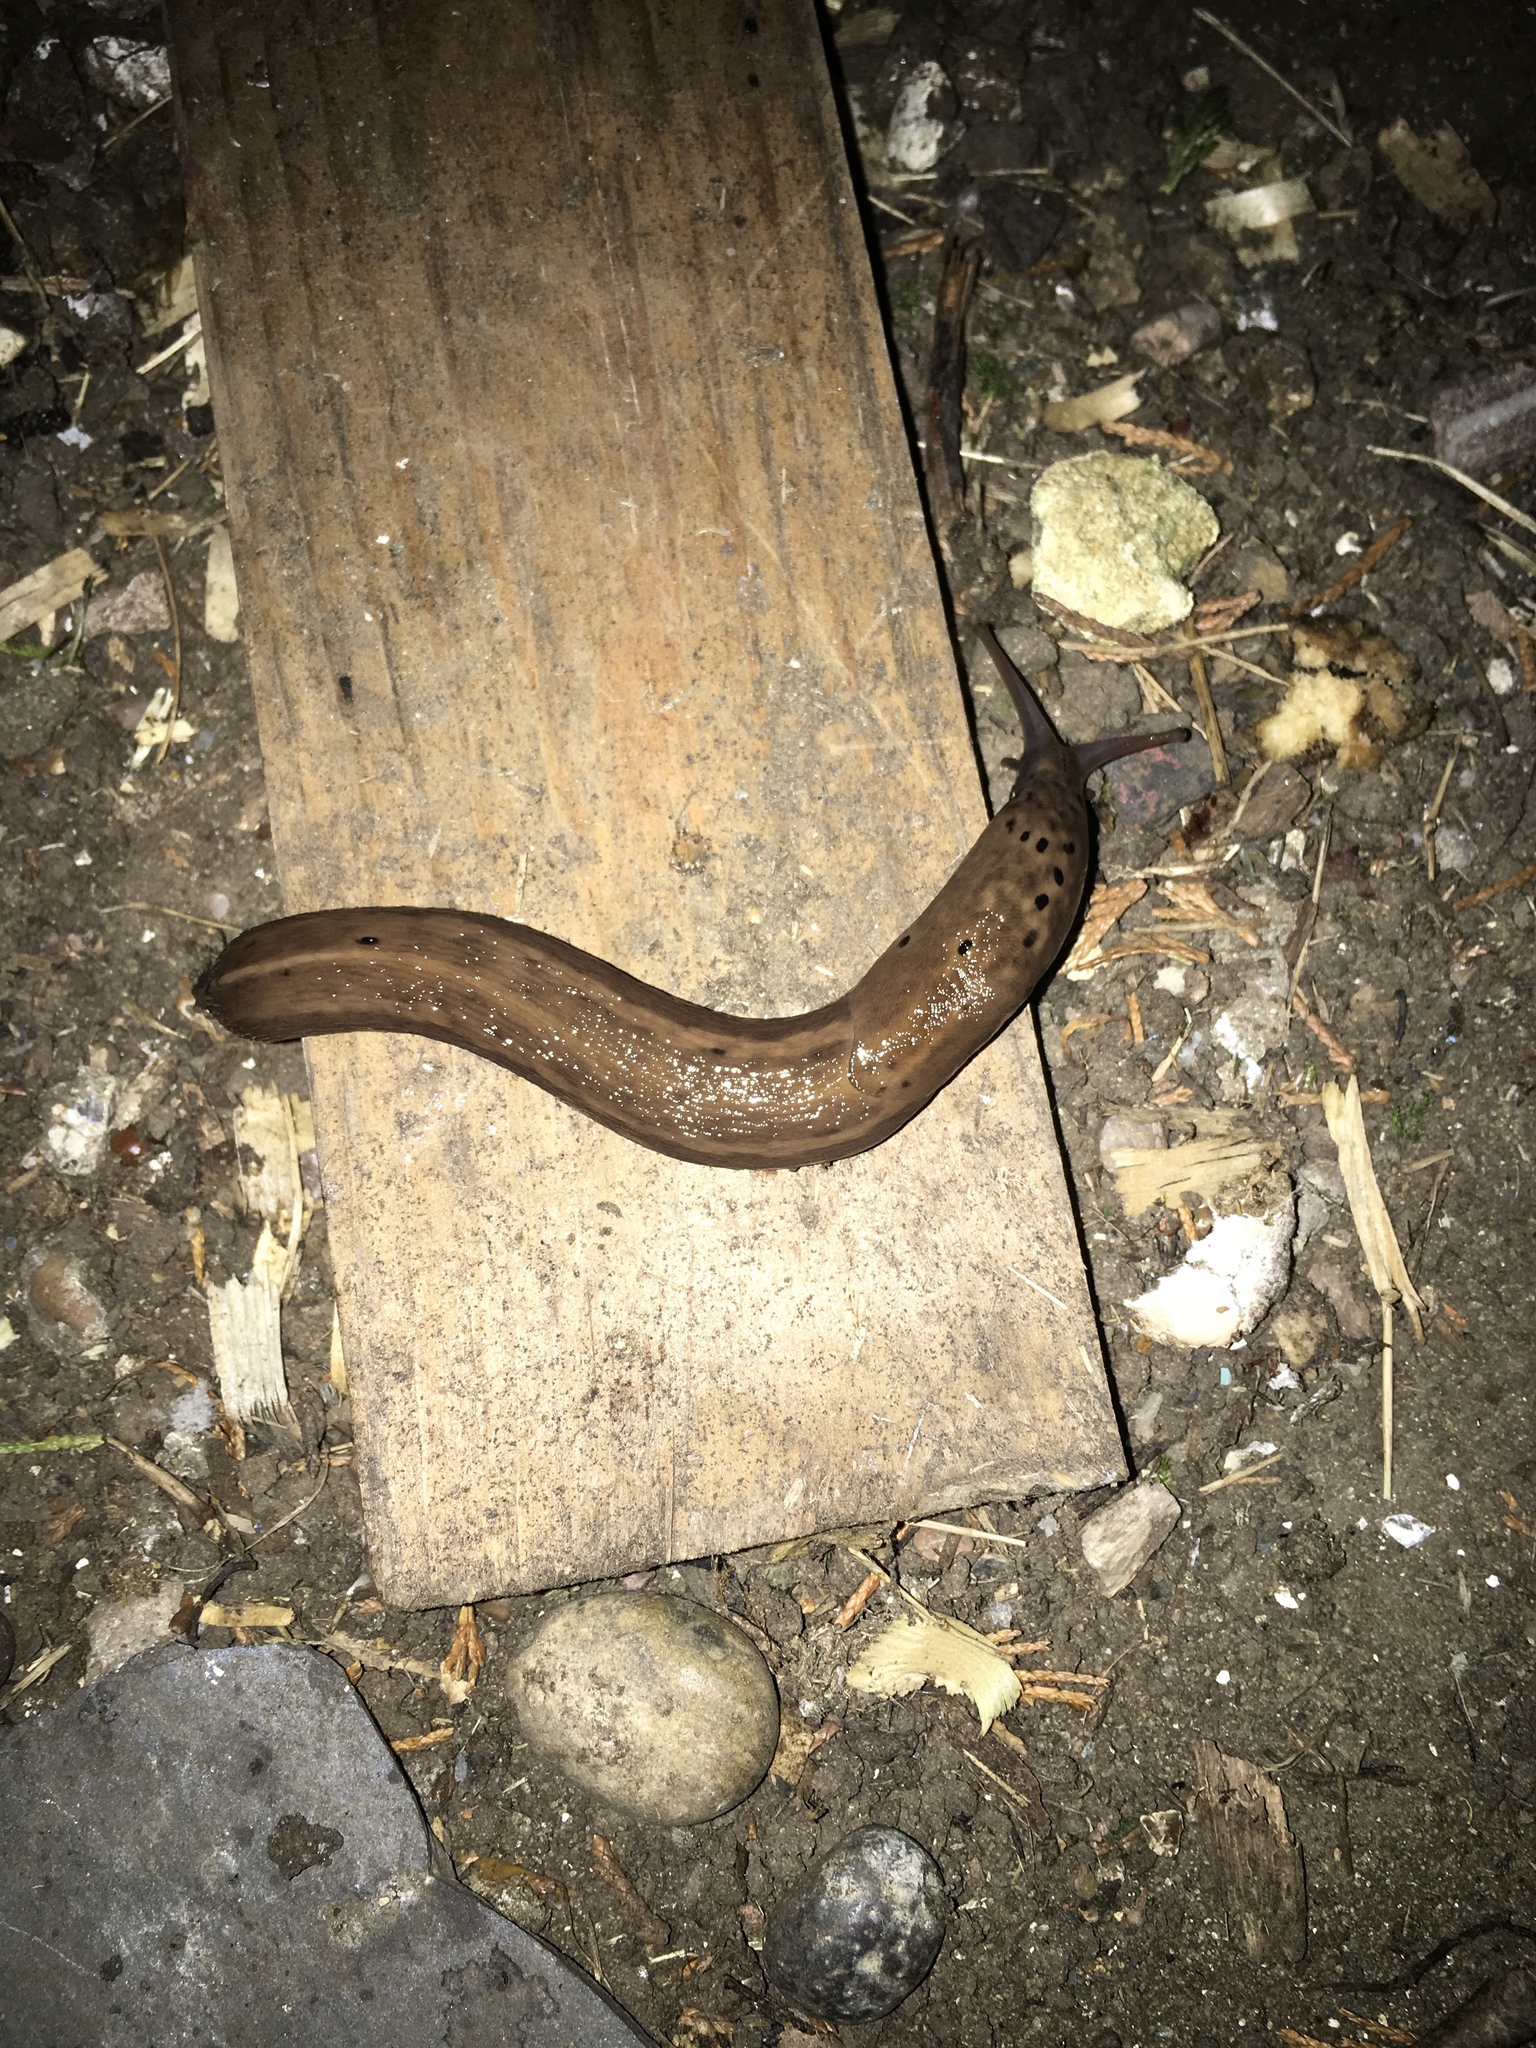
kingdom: Animalia
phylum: Mollusca
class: Gastropoda
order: Stylommatophora
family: Limacidae
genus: Limax
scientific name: Limax maximus
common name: Great grey slug
